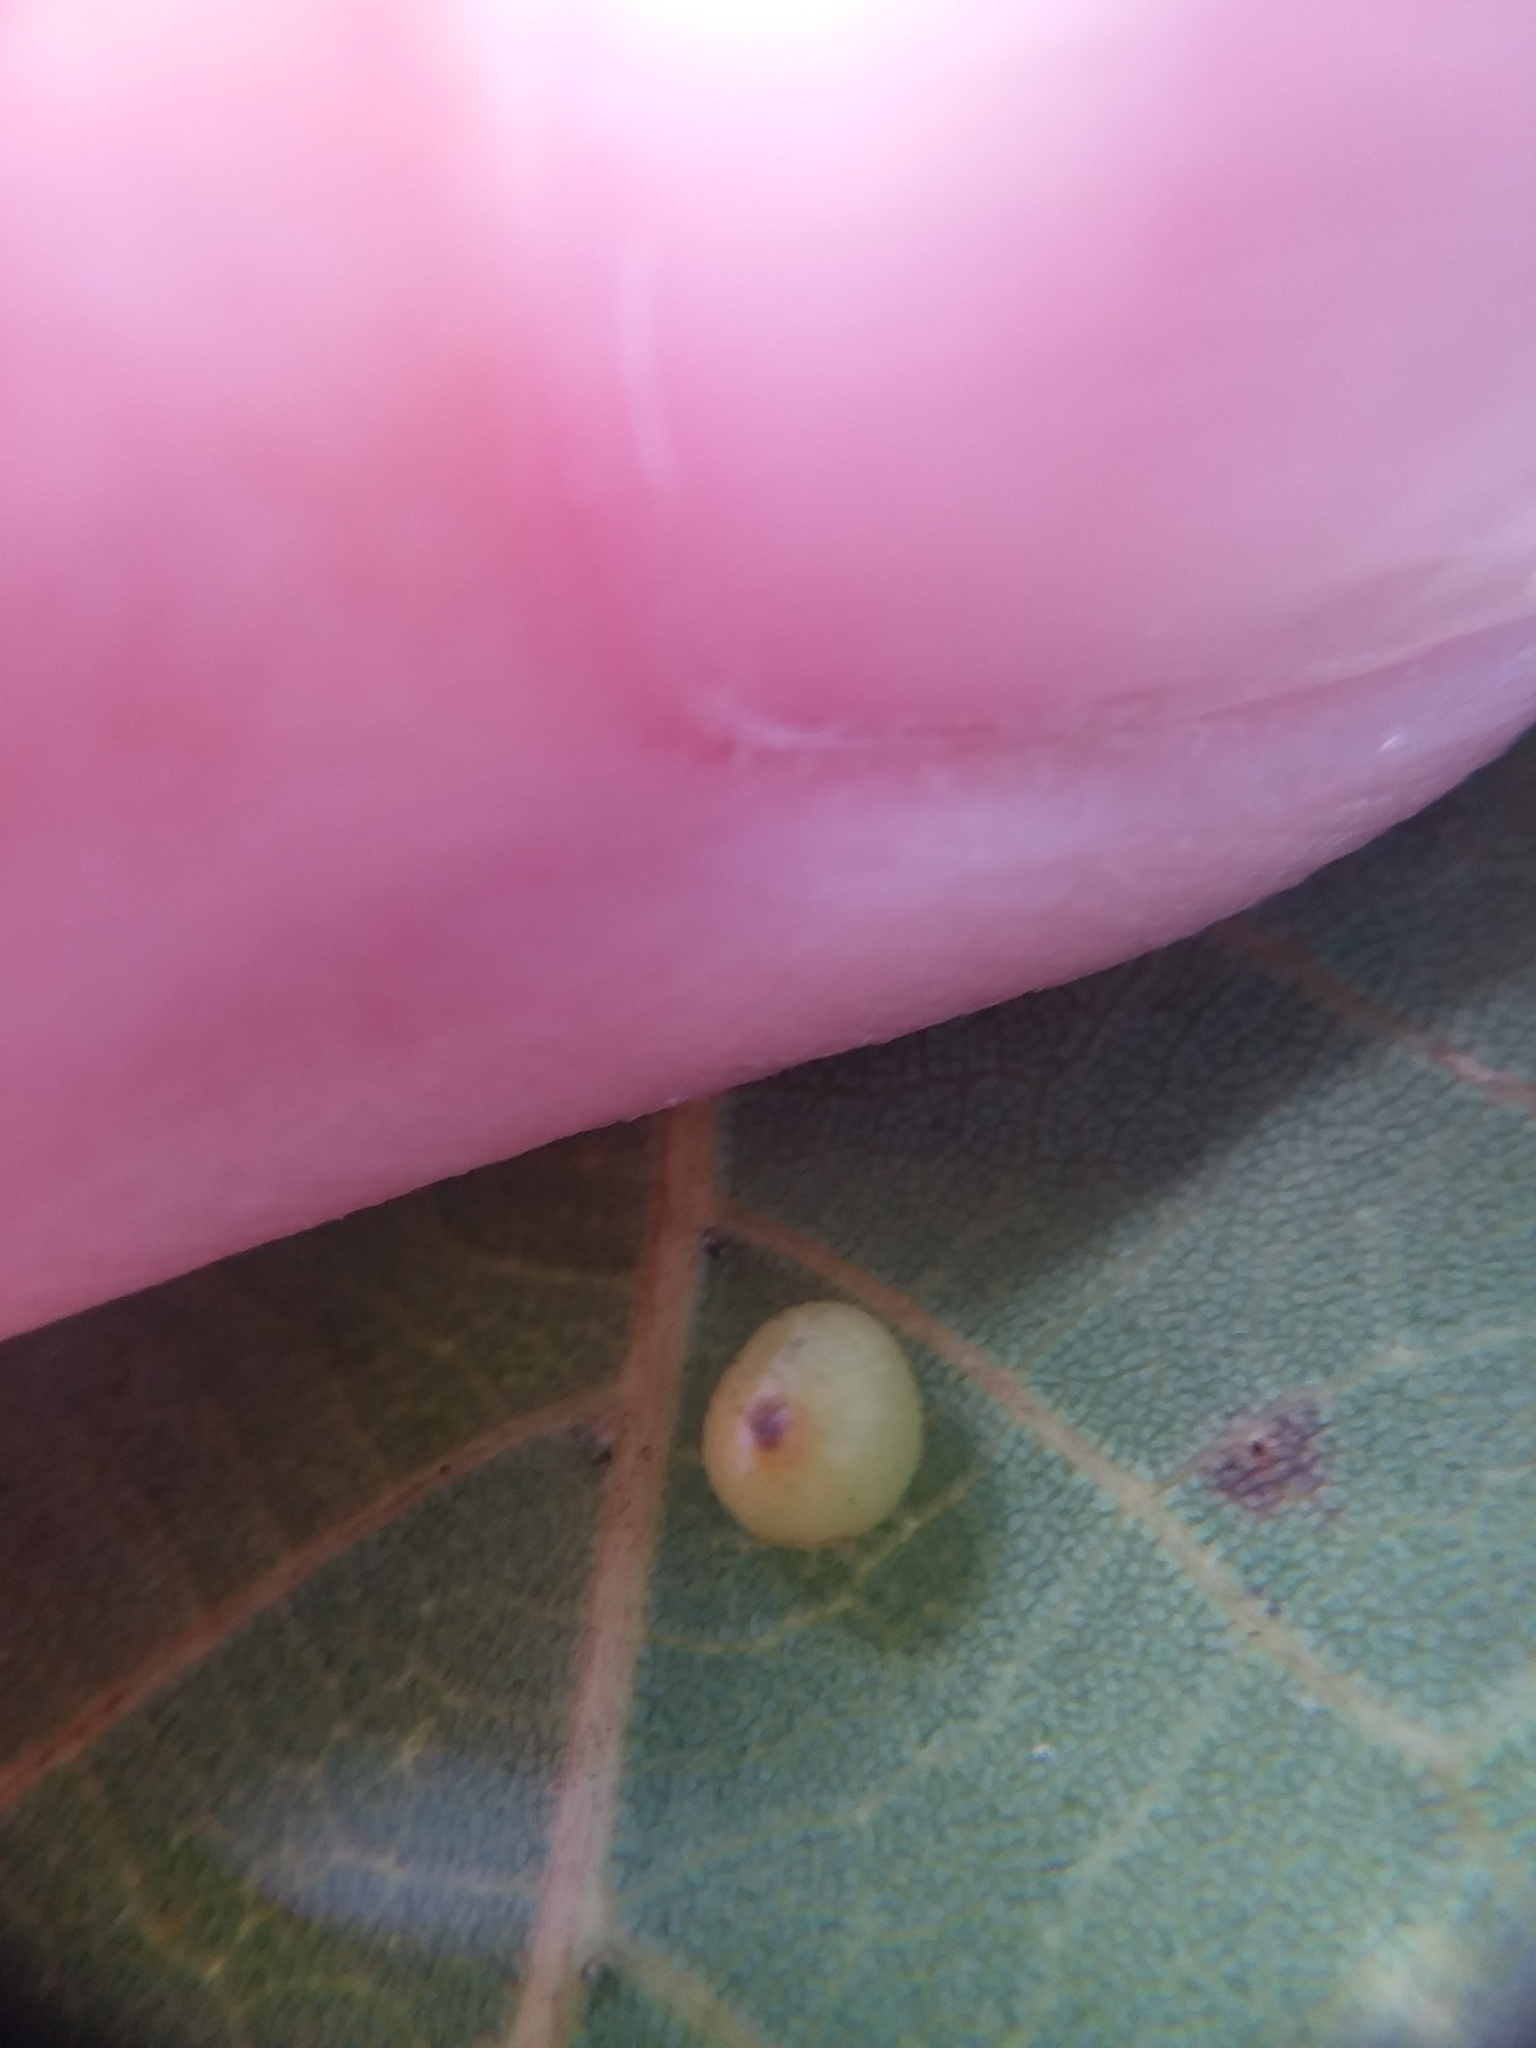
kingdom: Animalia
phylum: Arthropoda
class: Insecta
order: Diptera
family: Cecidomyiidae
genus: Caryomyia
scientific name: Caryomyia caryae
